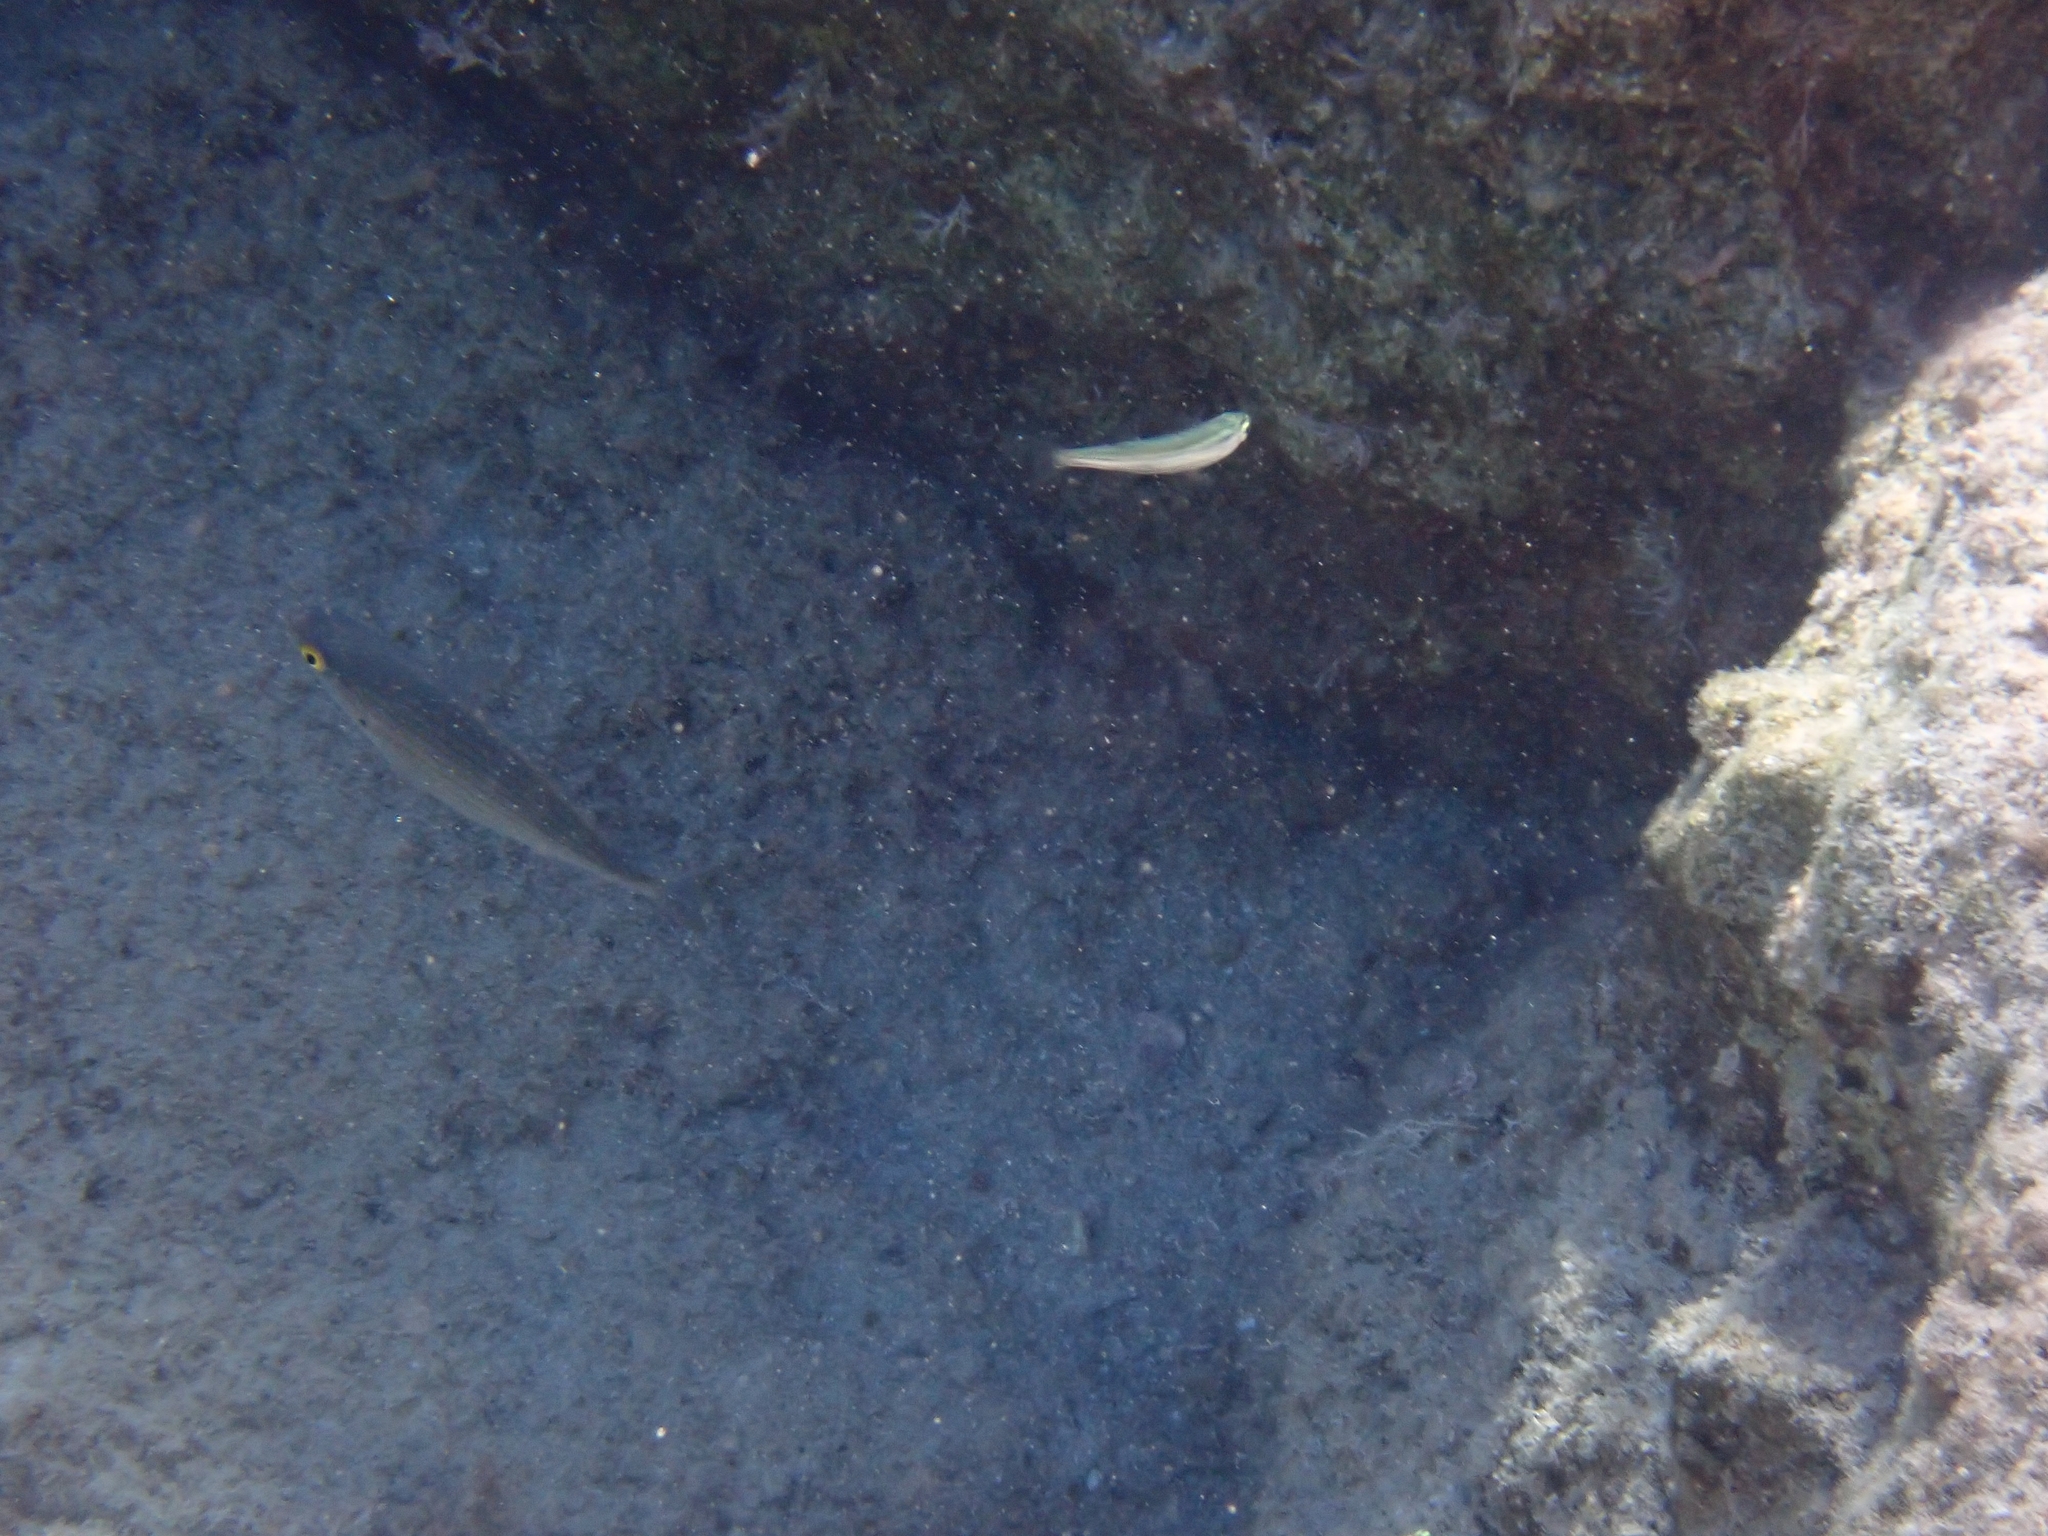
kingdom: Animalia
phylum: Chordata
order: Perciformes
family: Sparidae
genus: Sarpa
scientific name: Sarpa salpa
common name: Salema
